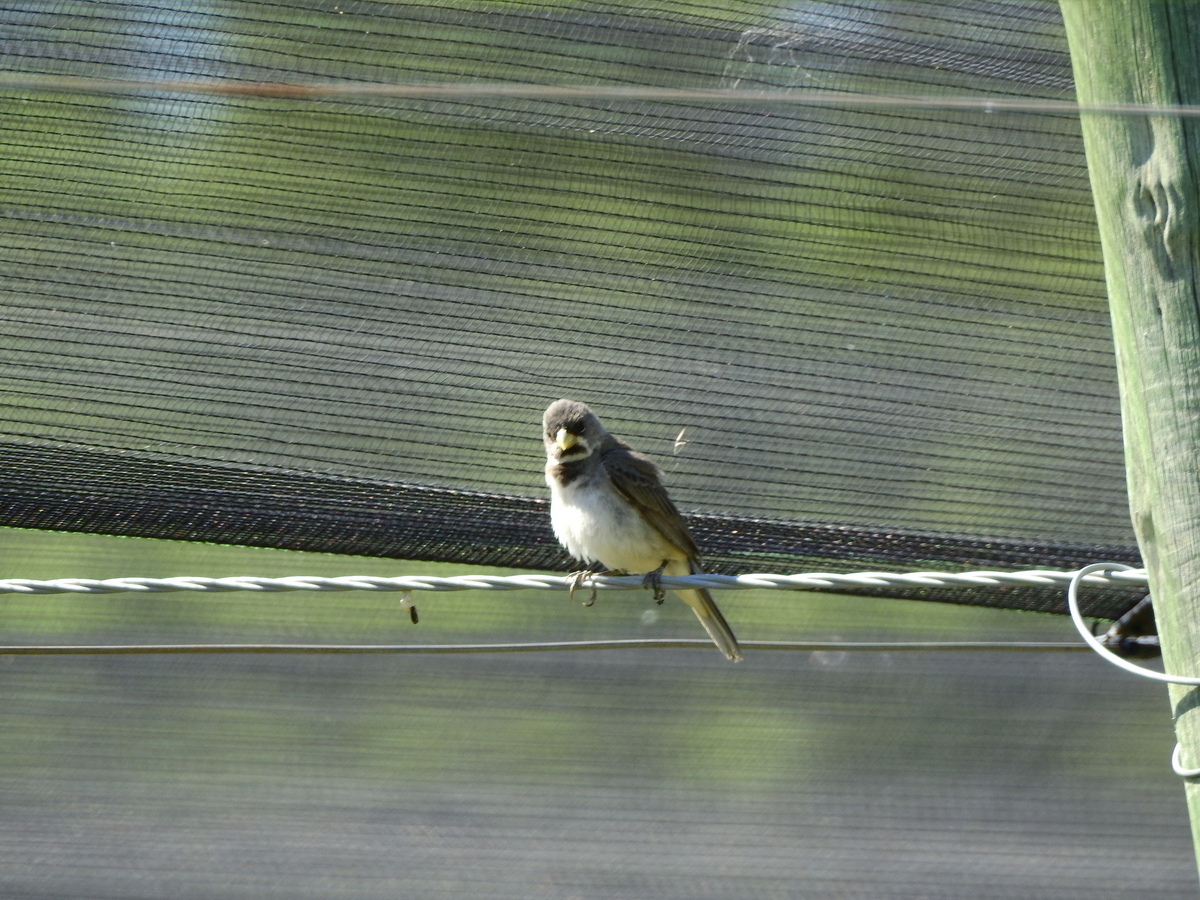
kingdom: Animalia
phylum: Chordata
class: Aves
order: Passeriformes
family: Thraupidae
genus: Sporophila
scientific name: Sporophila caerulescens
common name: Double-collared seedeater
